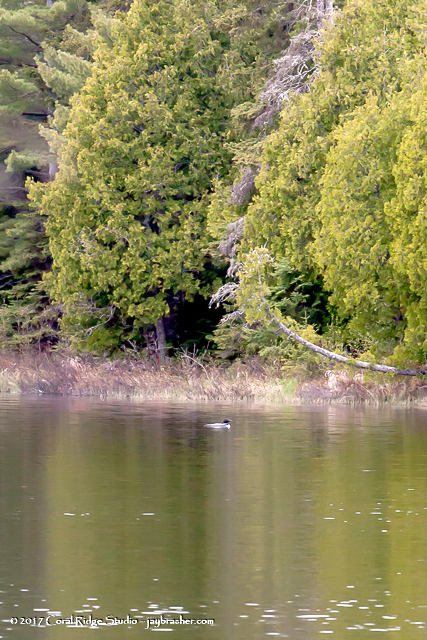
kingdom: Animalia
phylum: Chordata
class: Aves
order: Anseriformes
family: Anatidae
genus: Mergus
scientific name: Mergus merganser
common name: Common merganser
